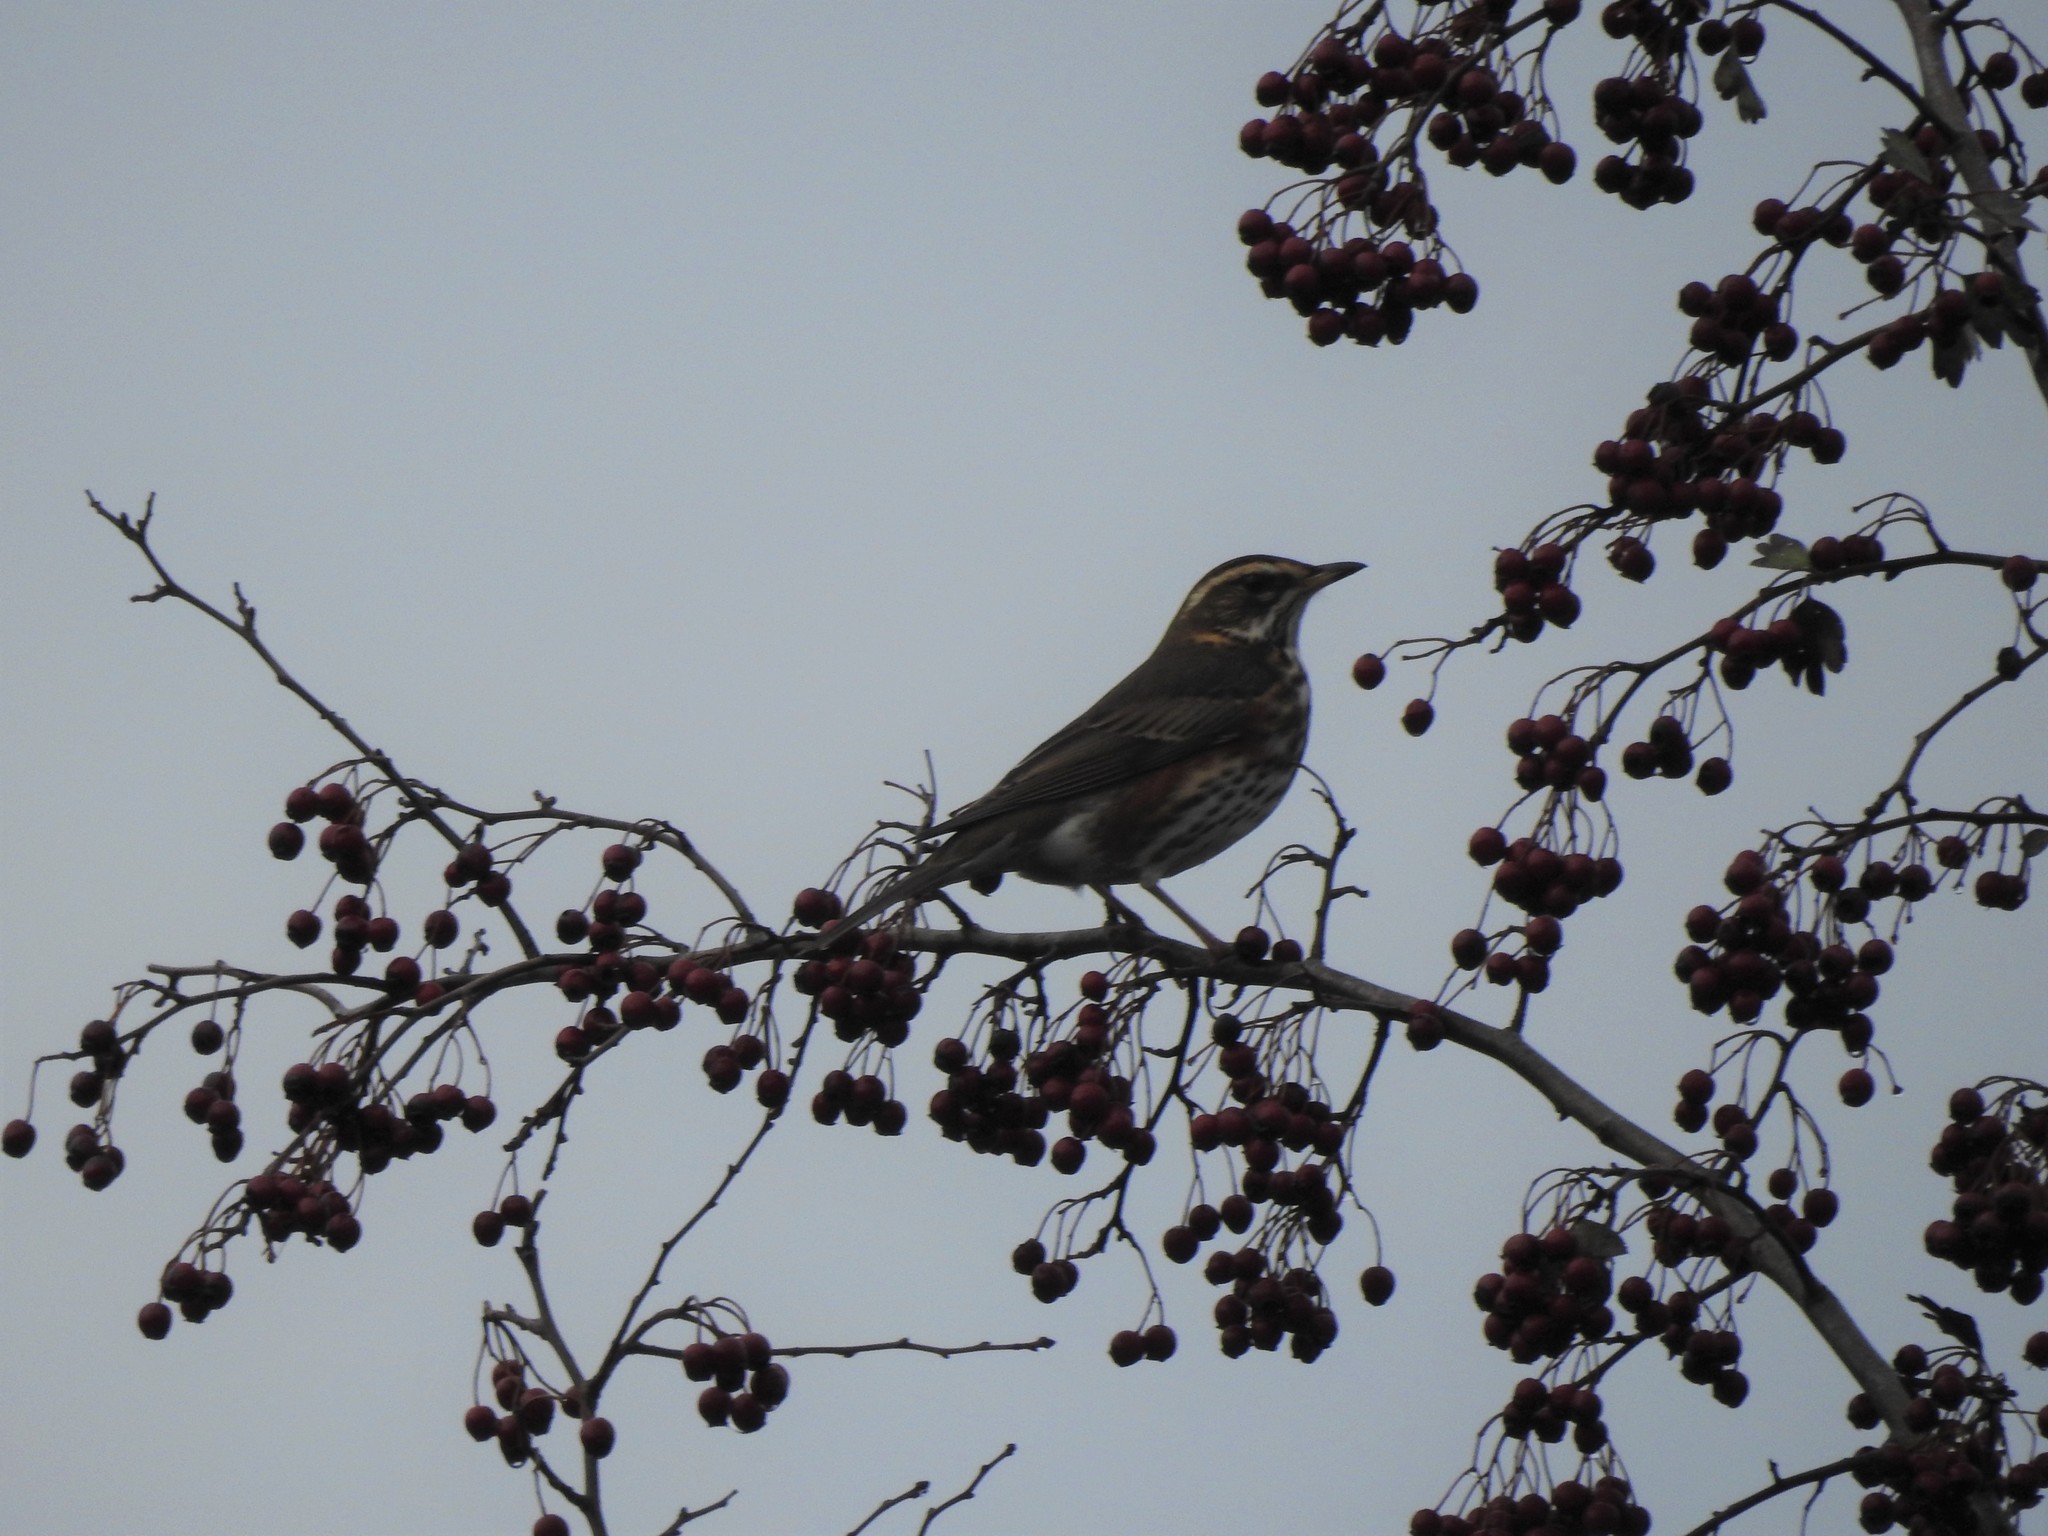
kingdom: Animalia
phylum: Chordata
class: Aves
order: Passeriformes
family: Turdidae
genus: Turdus
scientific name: Turdus iliacus
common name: Redwing
